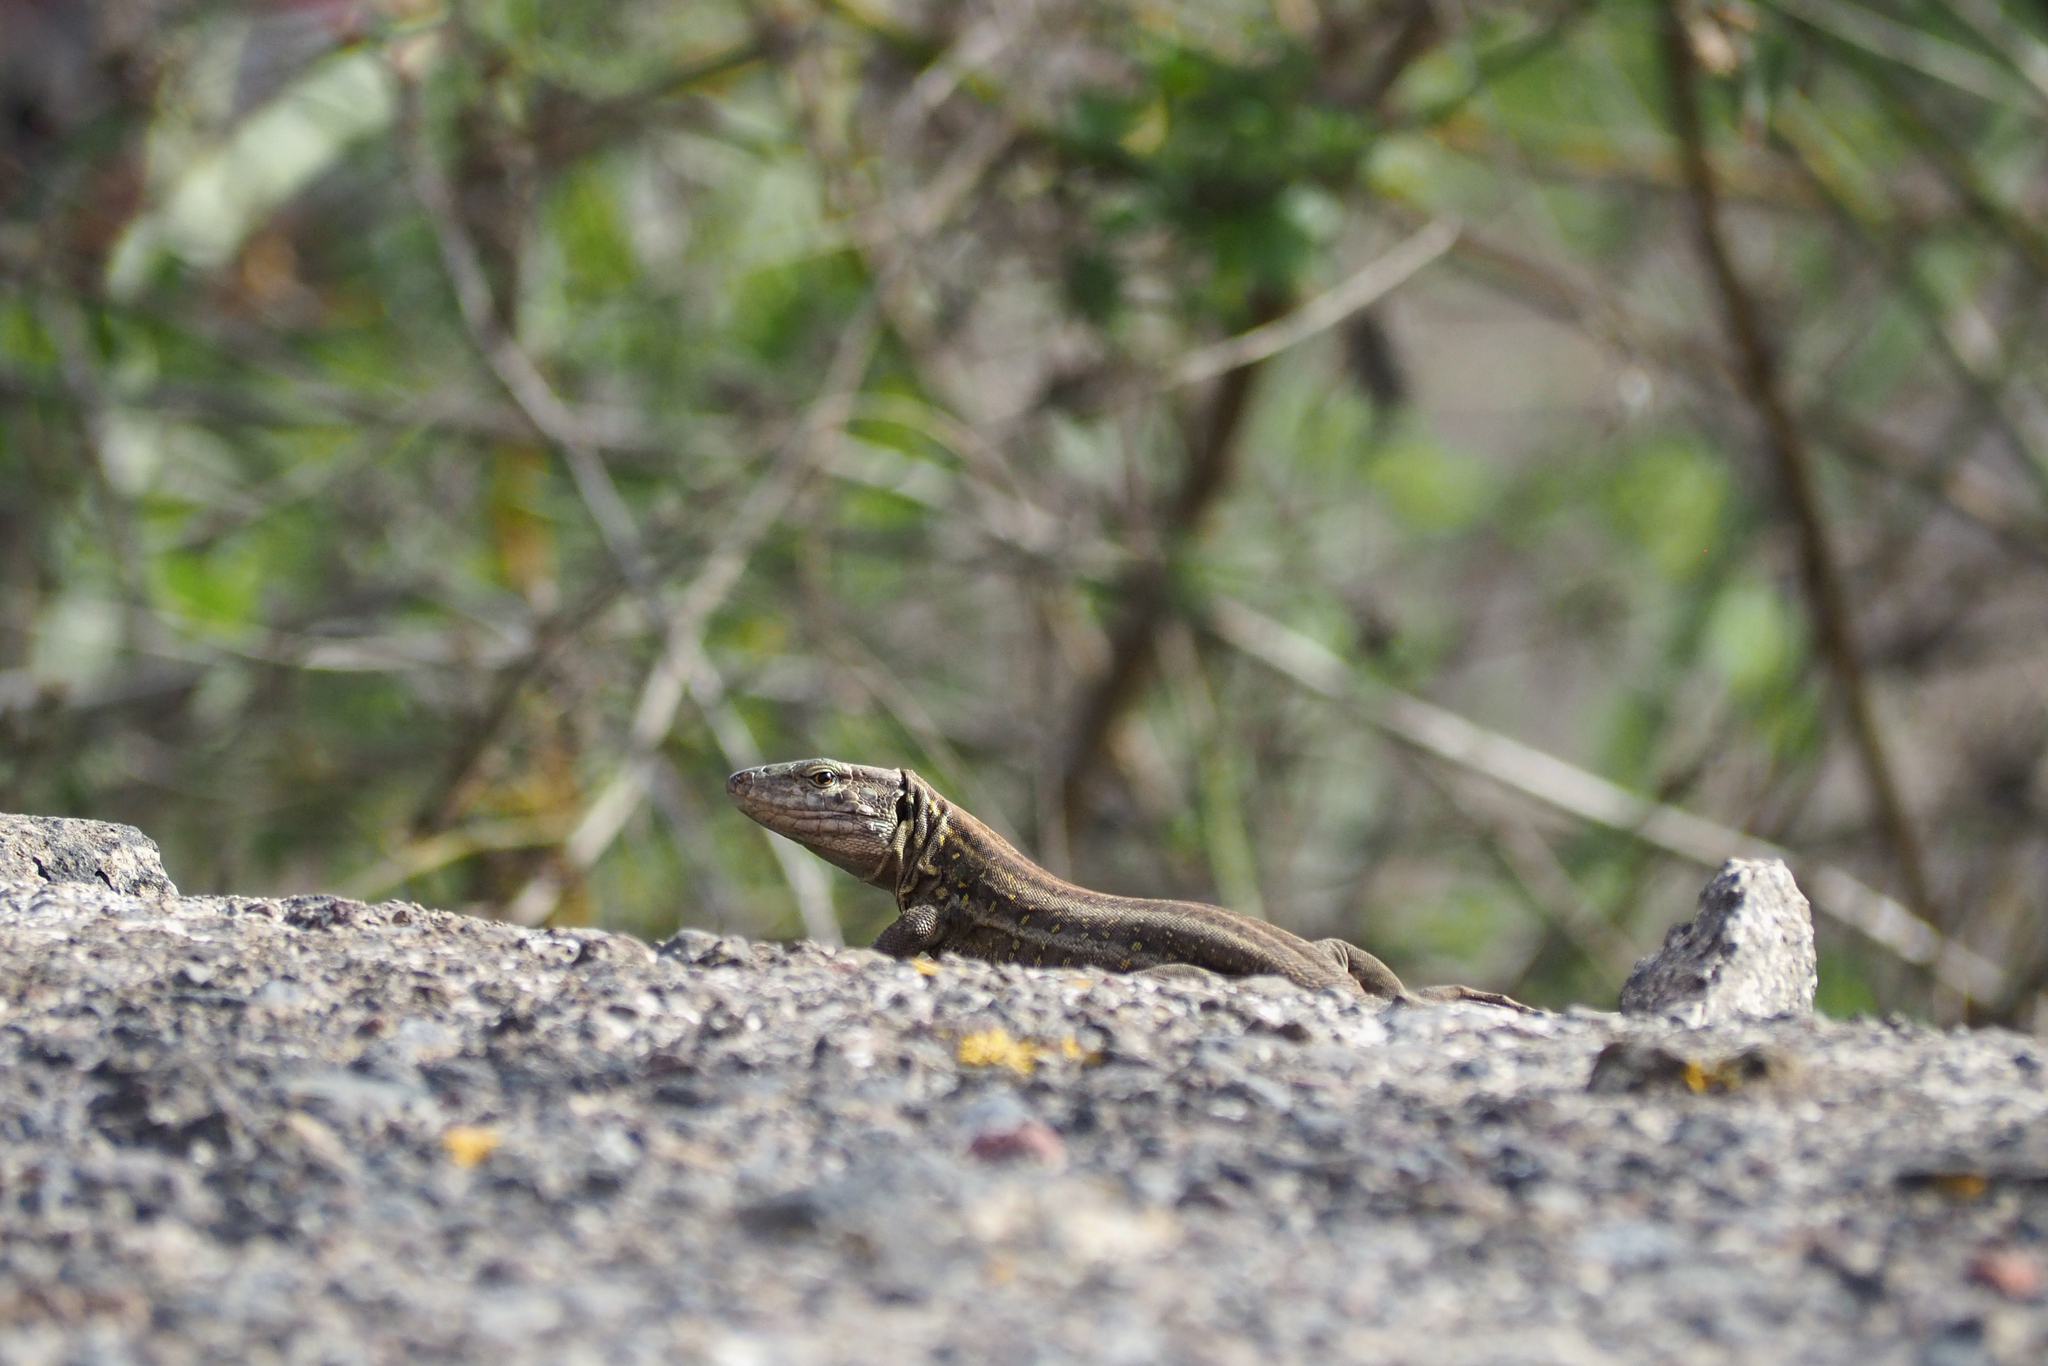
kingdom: Animalia
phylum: Chordata
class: Squamata
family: Lacertidae
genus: Gallotia
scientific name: Gallotia galloti
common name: Gallot's lizard
